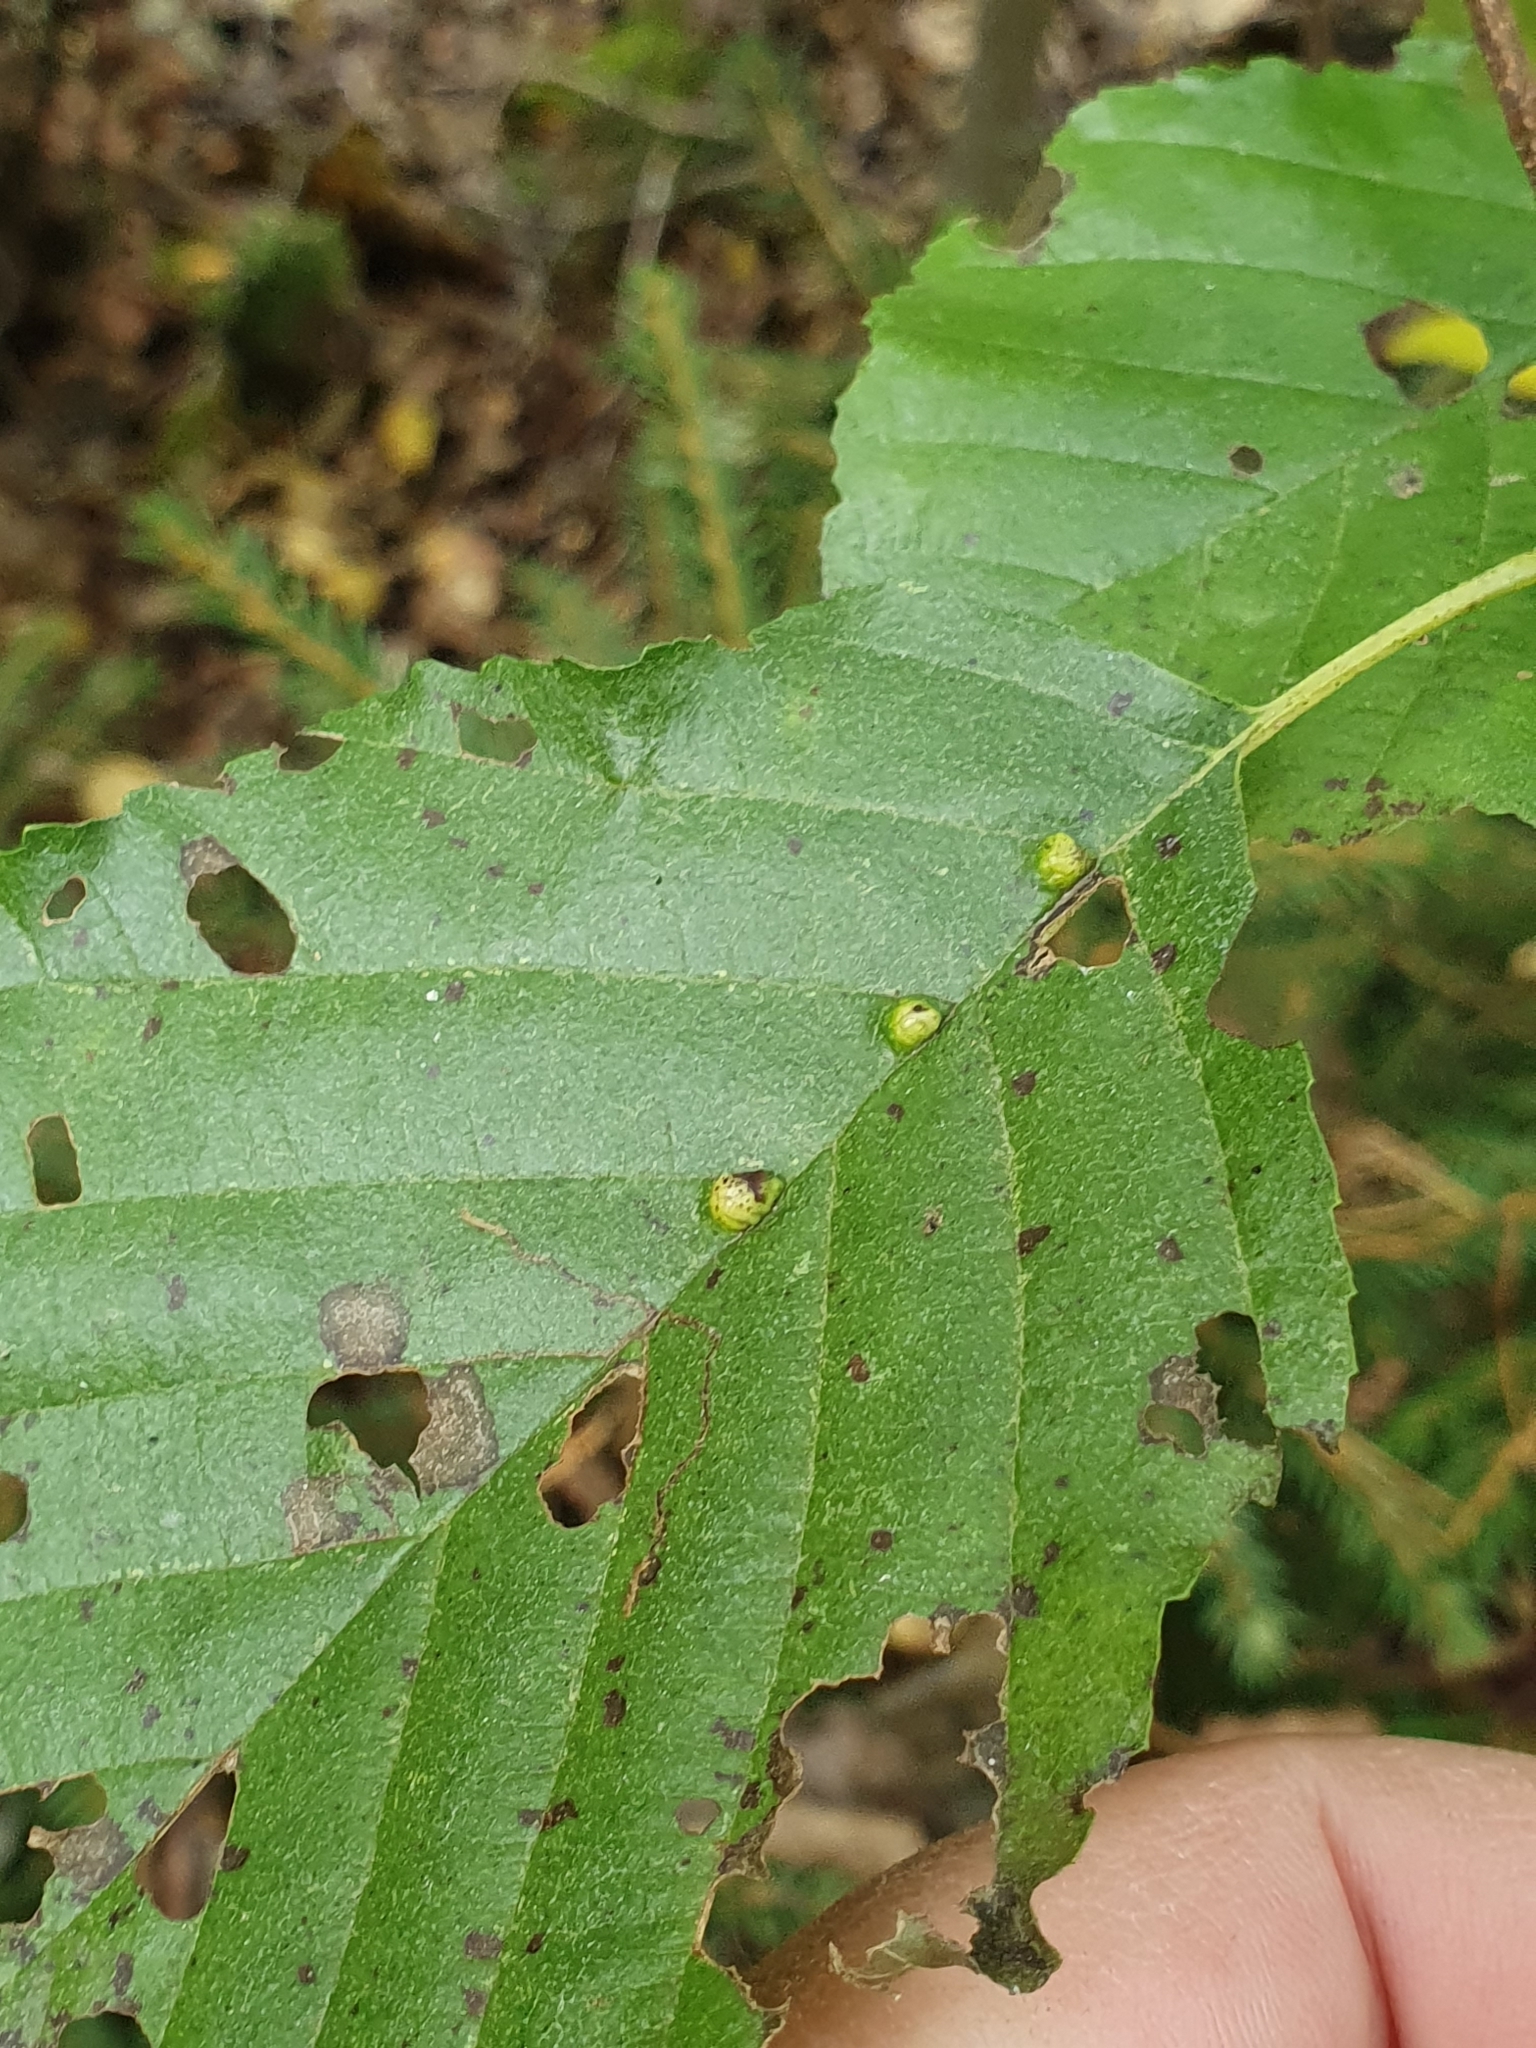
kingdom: Animalia
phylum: Arthropoda
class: Arachnida
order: Trombidiformes
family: Eriophyidae
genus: Eriophyes
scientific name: Eriophyes inangulis
